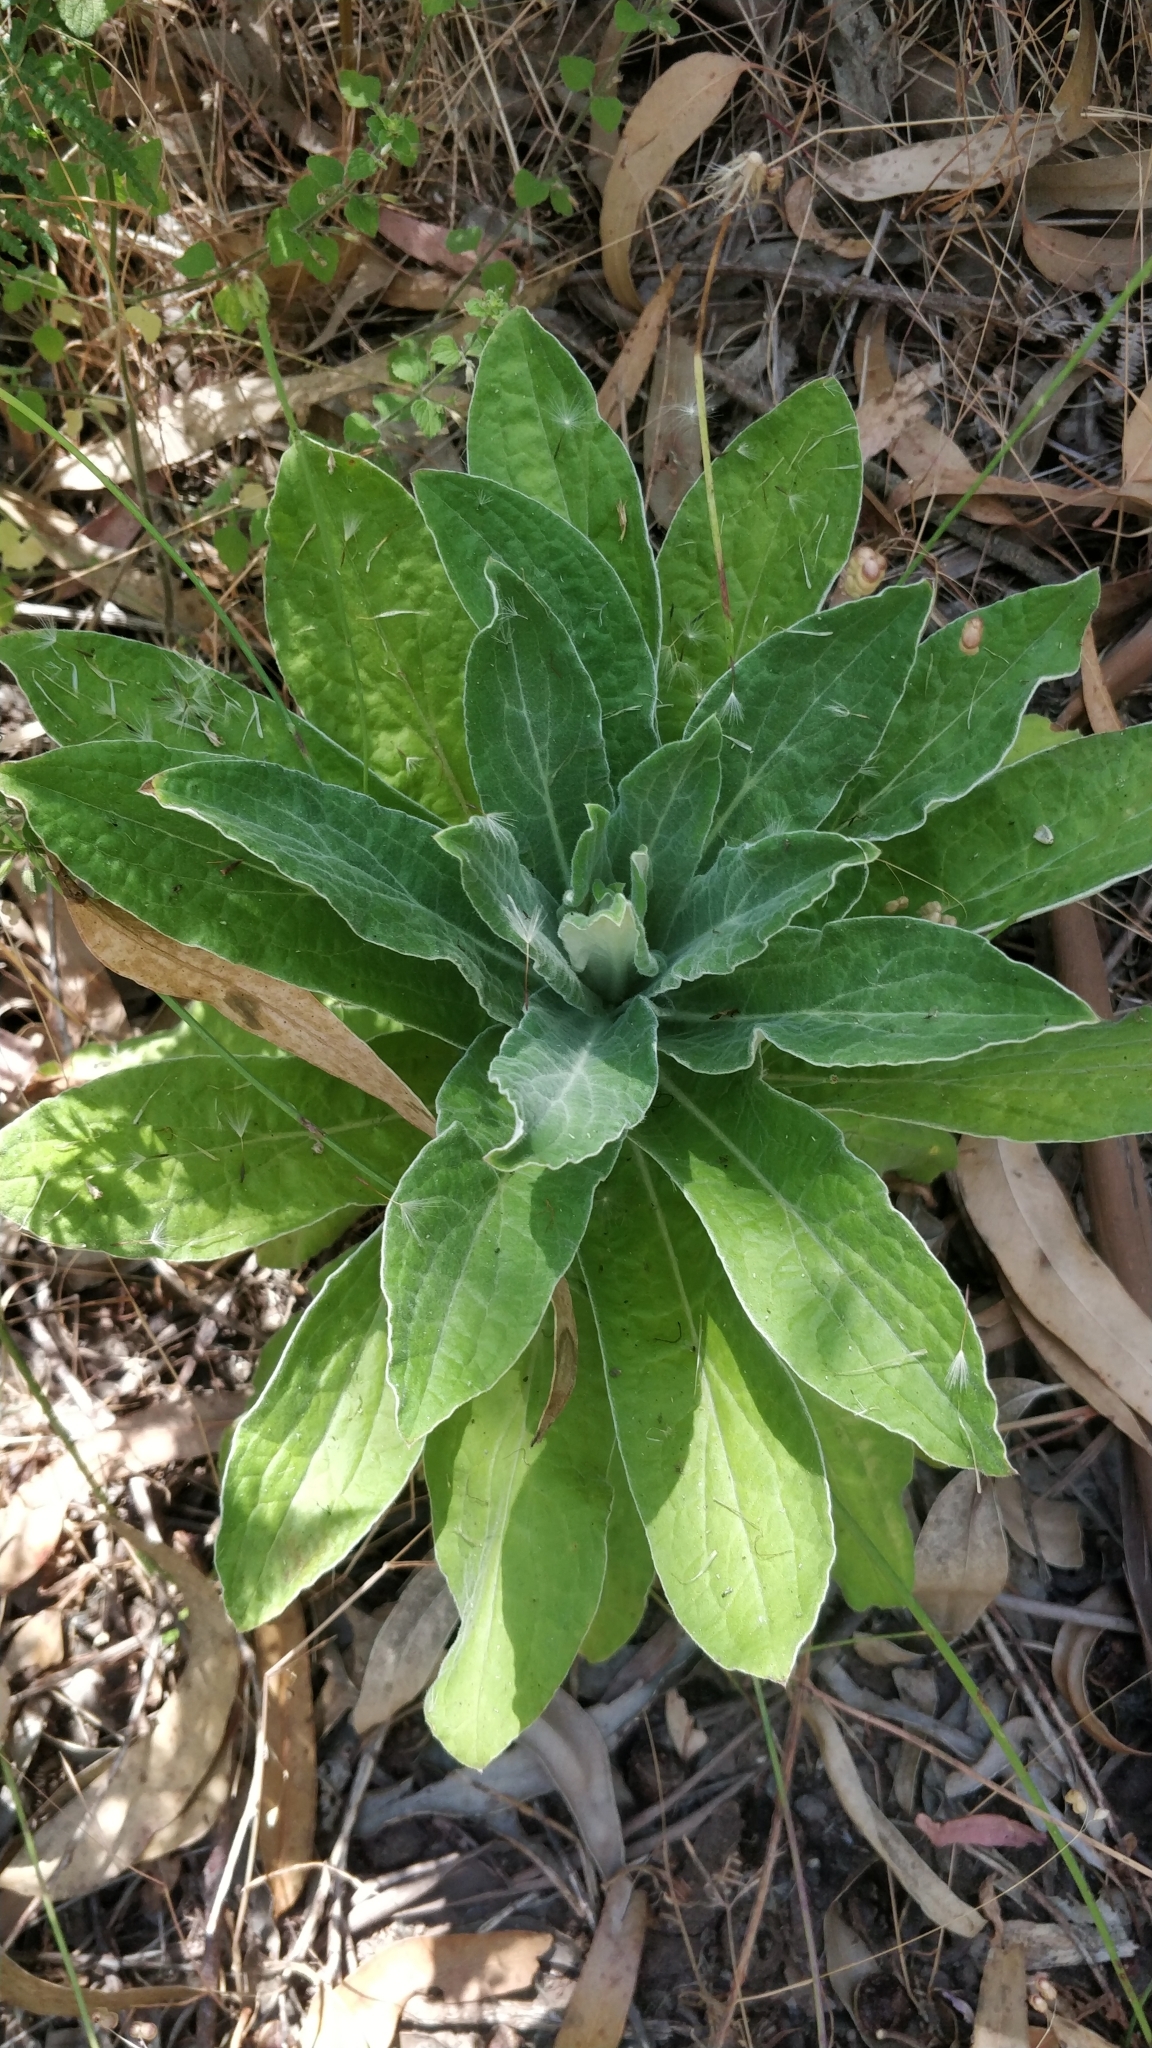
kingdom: Plantae
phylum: Tracheophyta
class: Magnoliopsida
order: Asterales
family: Asteraceae
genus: Helichrysum
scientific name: Helichrysum foetidum
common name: Stinking everlasting
